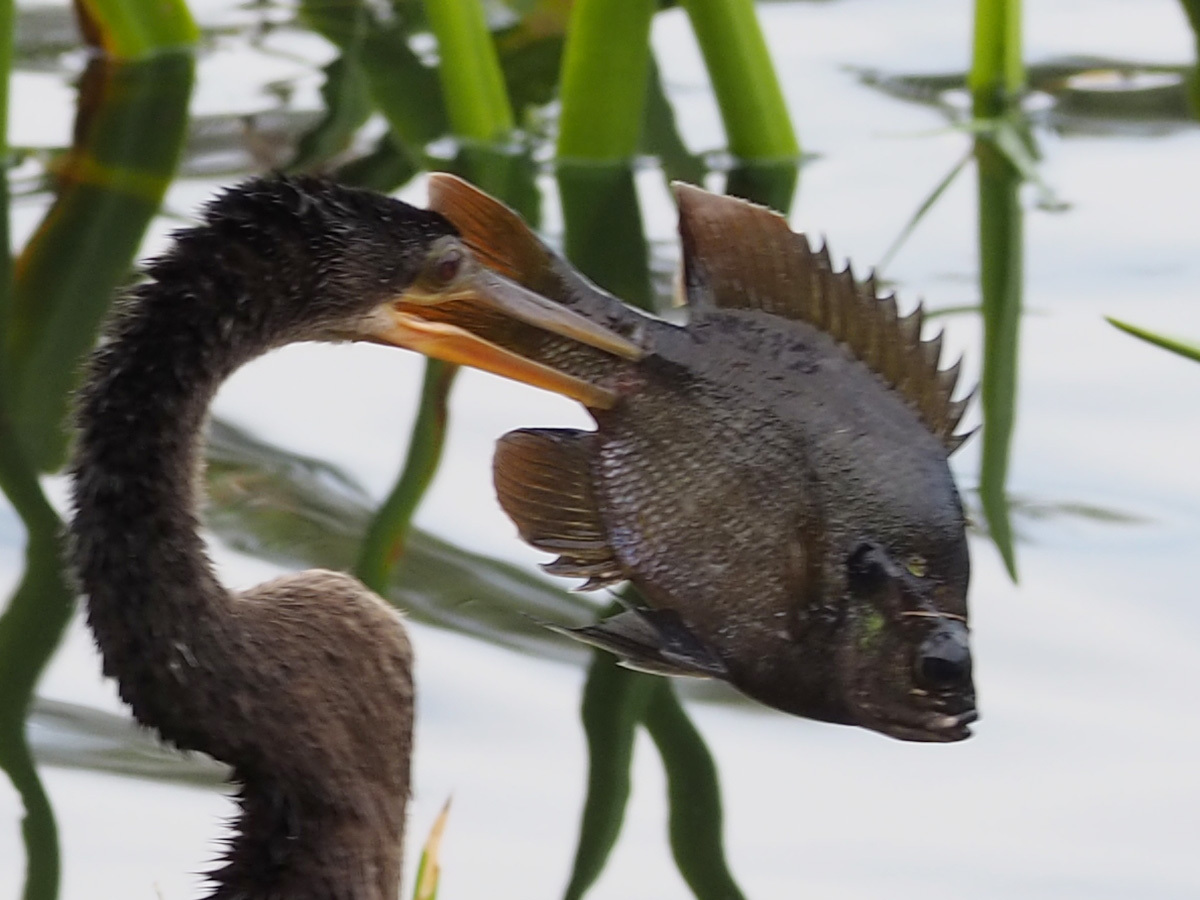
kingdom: Animalia
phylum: Chordata
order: Perciformes
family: Centrarchidae
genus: Lepomis
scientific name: Lepomis macrochirus
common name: Bluegill
